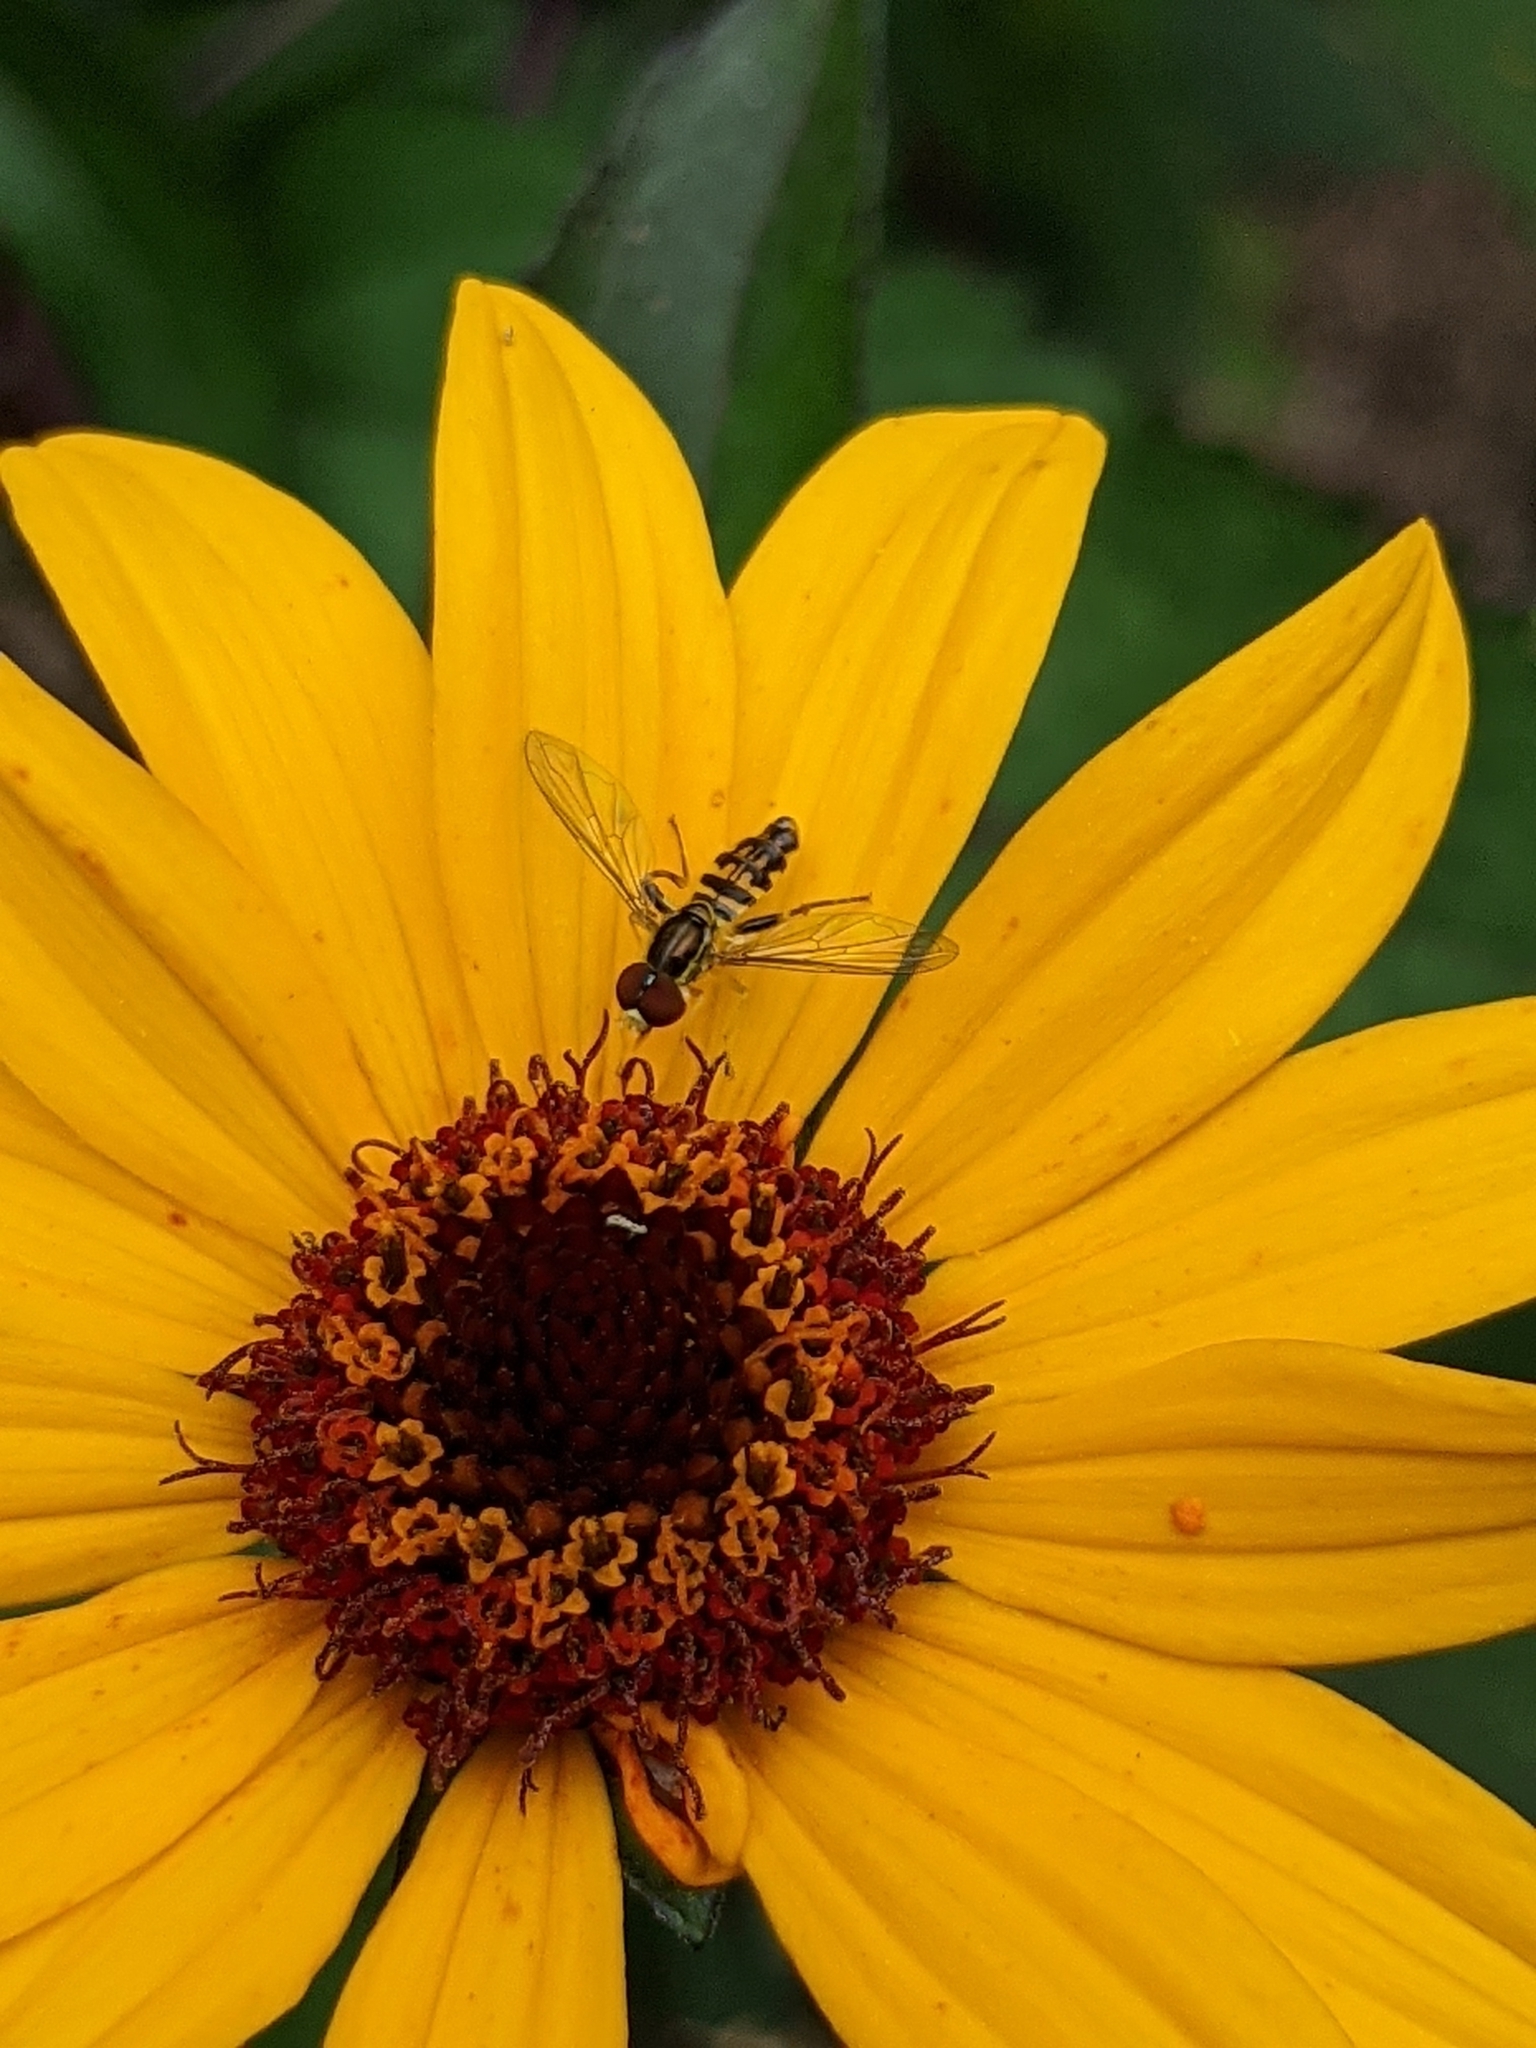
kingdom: Animalia
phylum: Arthropoda
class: Insecta
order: Diptera
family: Syrphidae
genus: Toxomerus
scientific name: Toxomerus geminatus
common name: Eastern calligrapher
